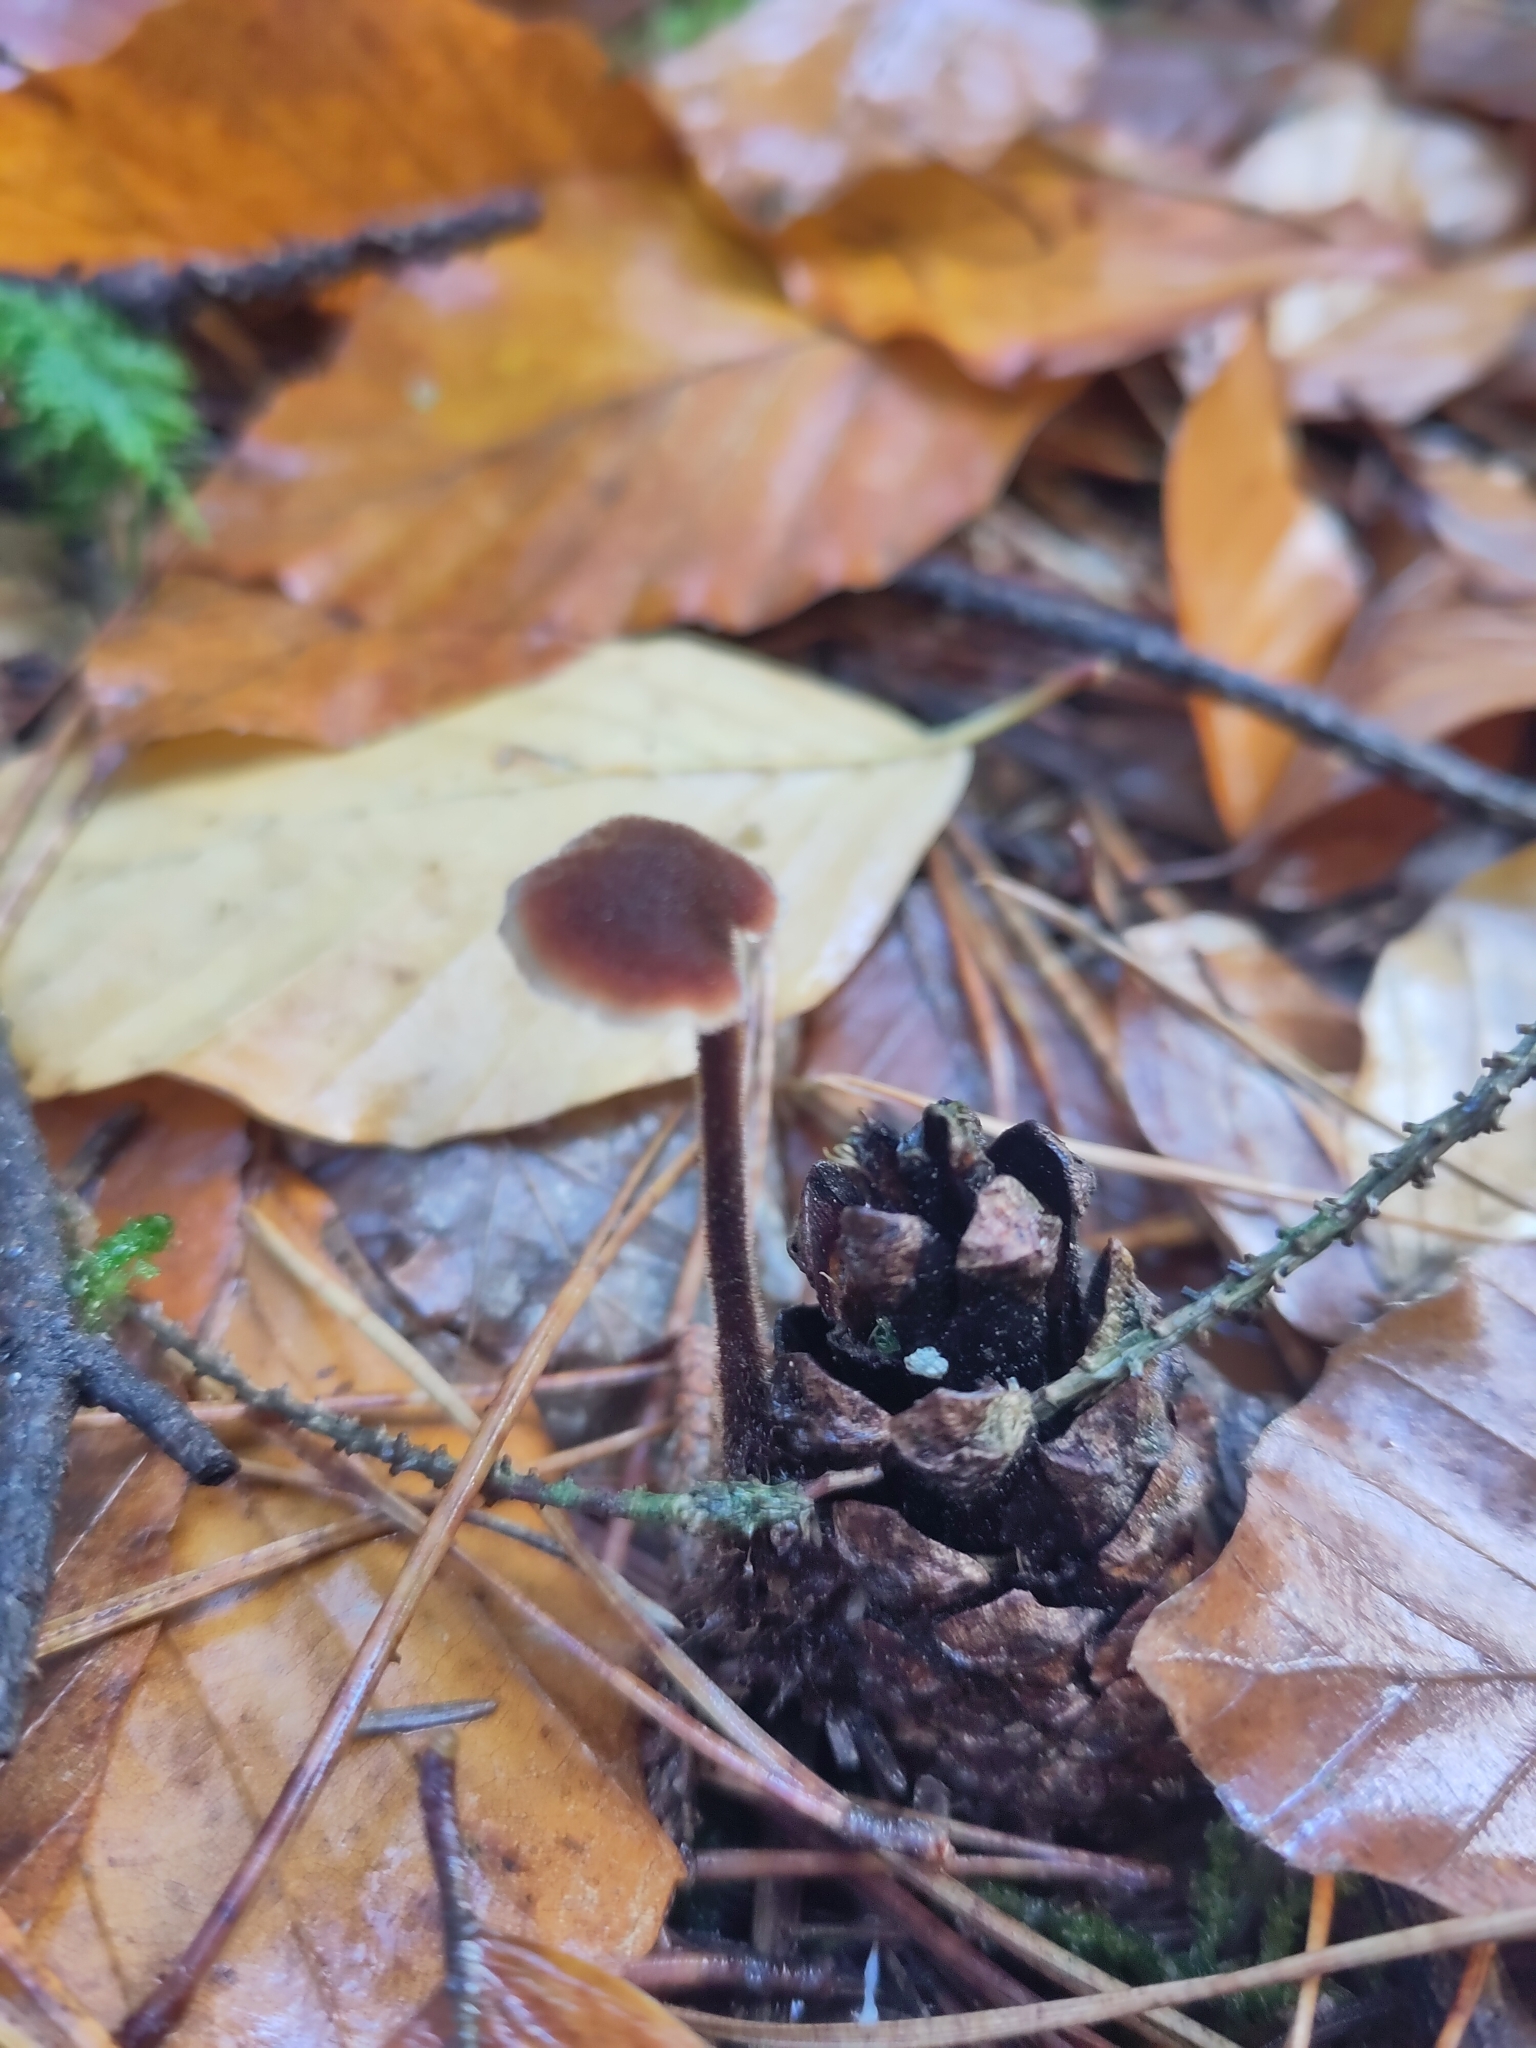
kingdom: Fungi
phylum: Basidiomycota
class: Agaricomycetes
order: Russulales
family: Auriscalpiaceae
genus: Auriscalpium
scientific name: Auriscalpium vulgare
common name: Earpick fungus
